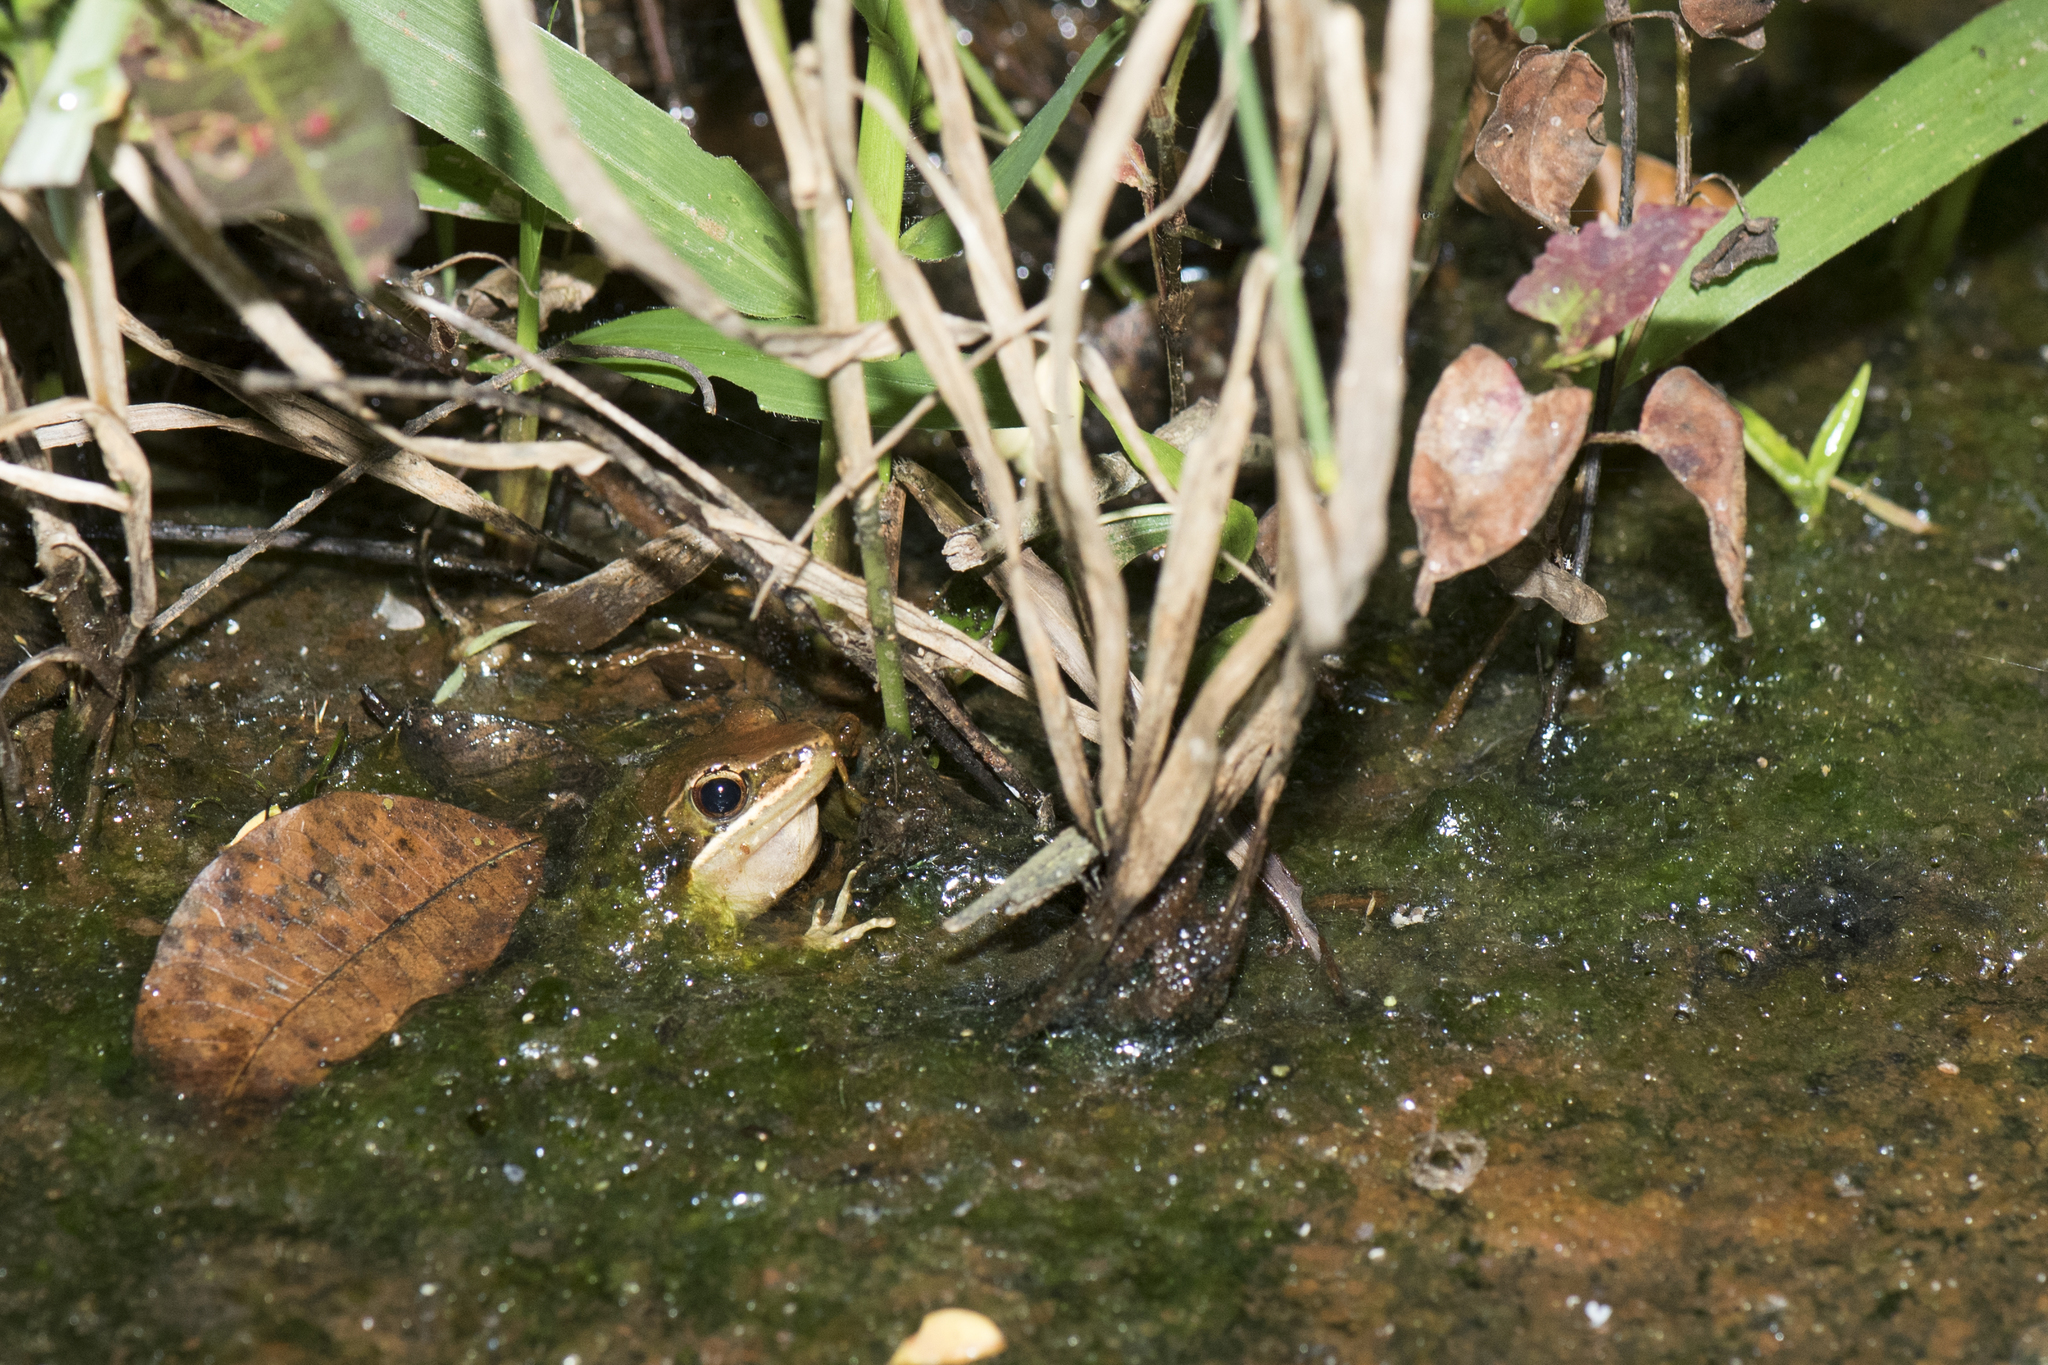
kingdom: Animalia
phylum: Chordata
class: Amphibia
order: Anura
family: Ranidae
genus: Nidirana
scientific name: Nidirana adenopleura
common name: Olive frog
